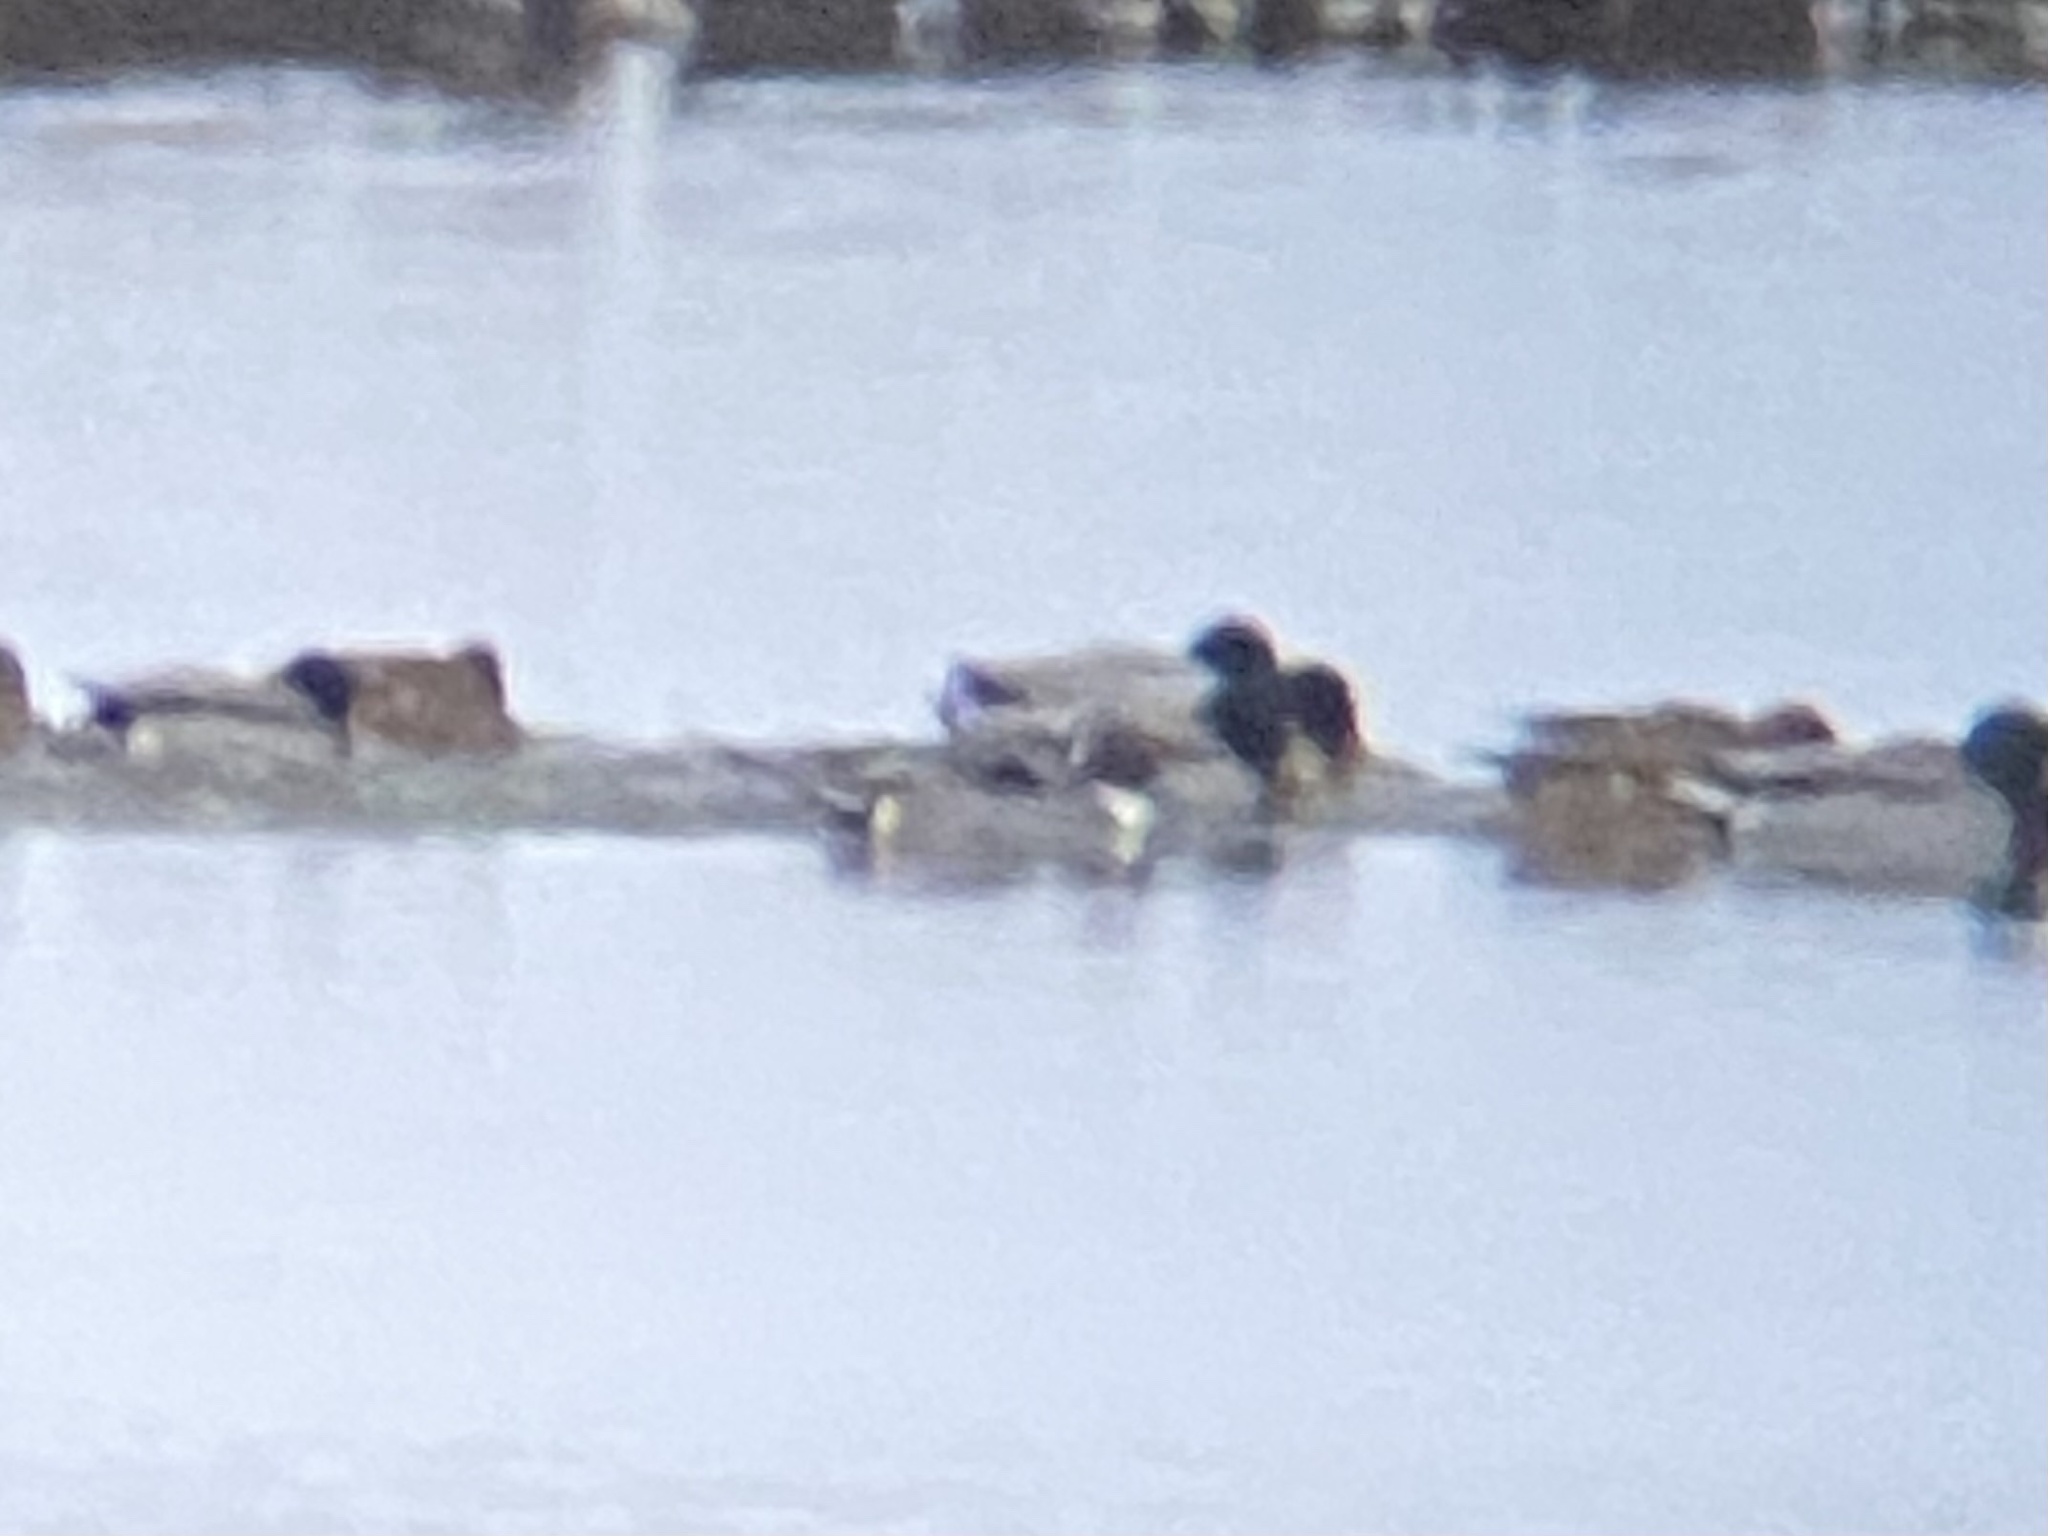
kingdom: Animalia
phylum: Chordata
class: Aves
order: Anseriformes
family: Anatidae
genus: Anas
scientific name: Anas acuta
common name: Northern pintail
